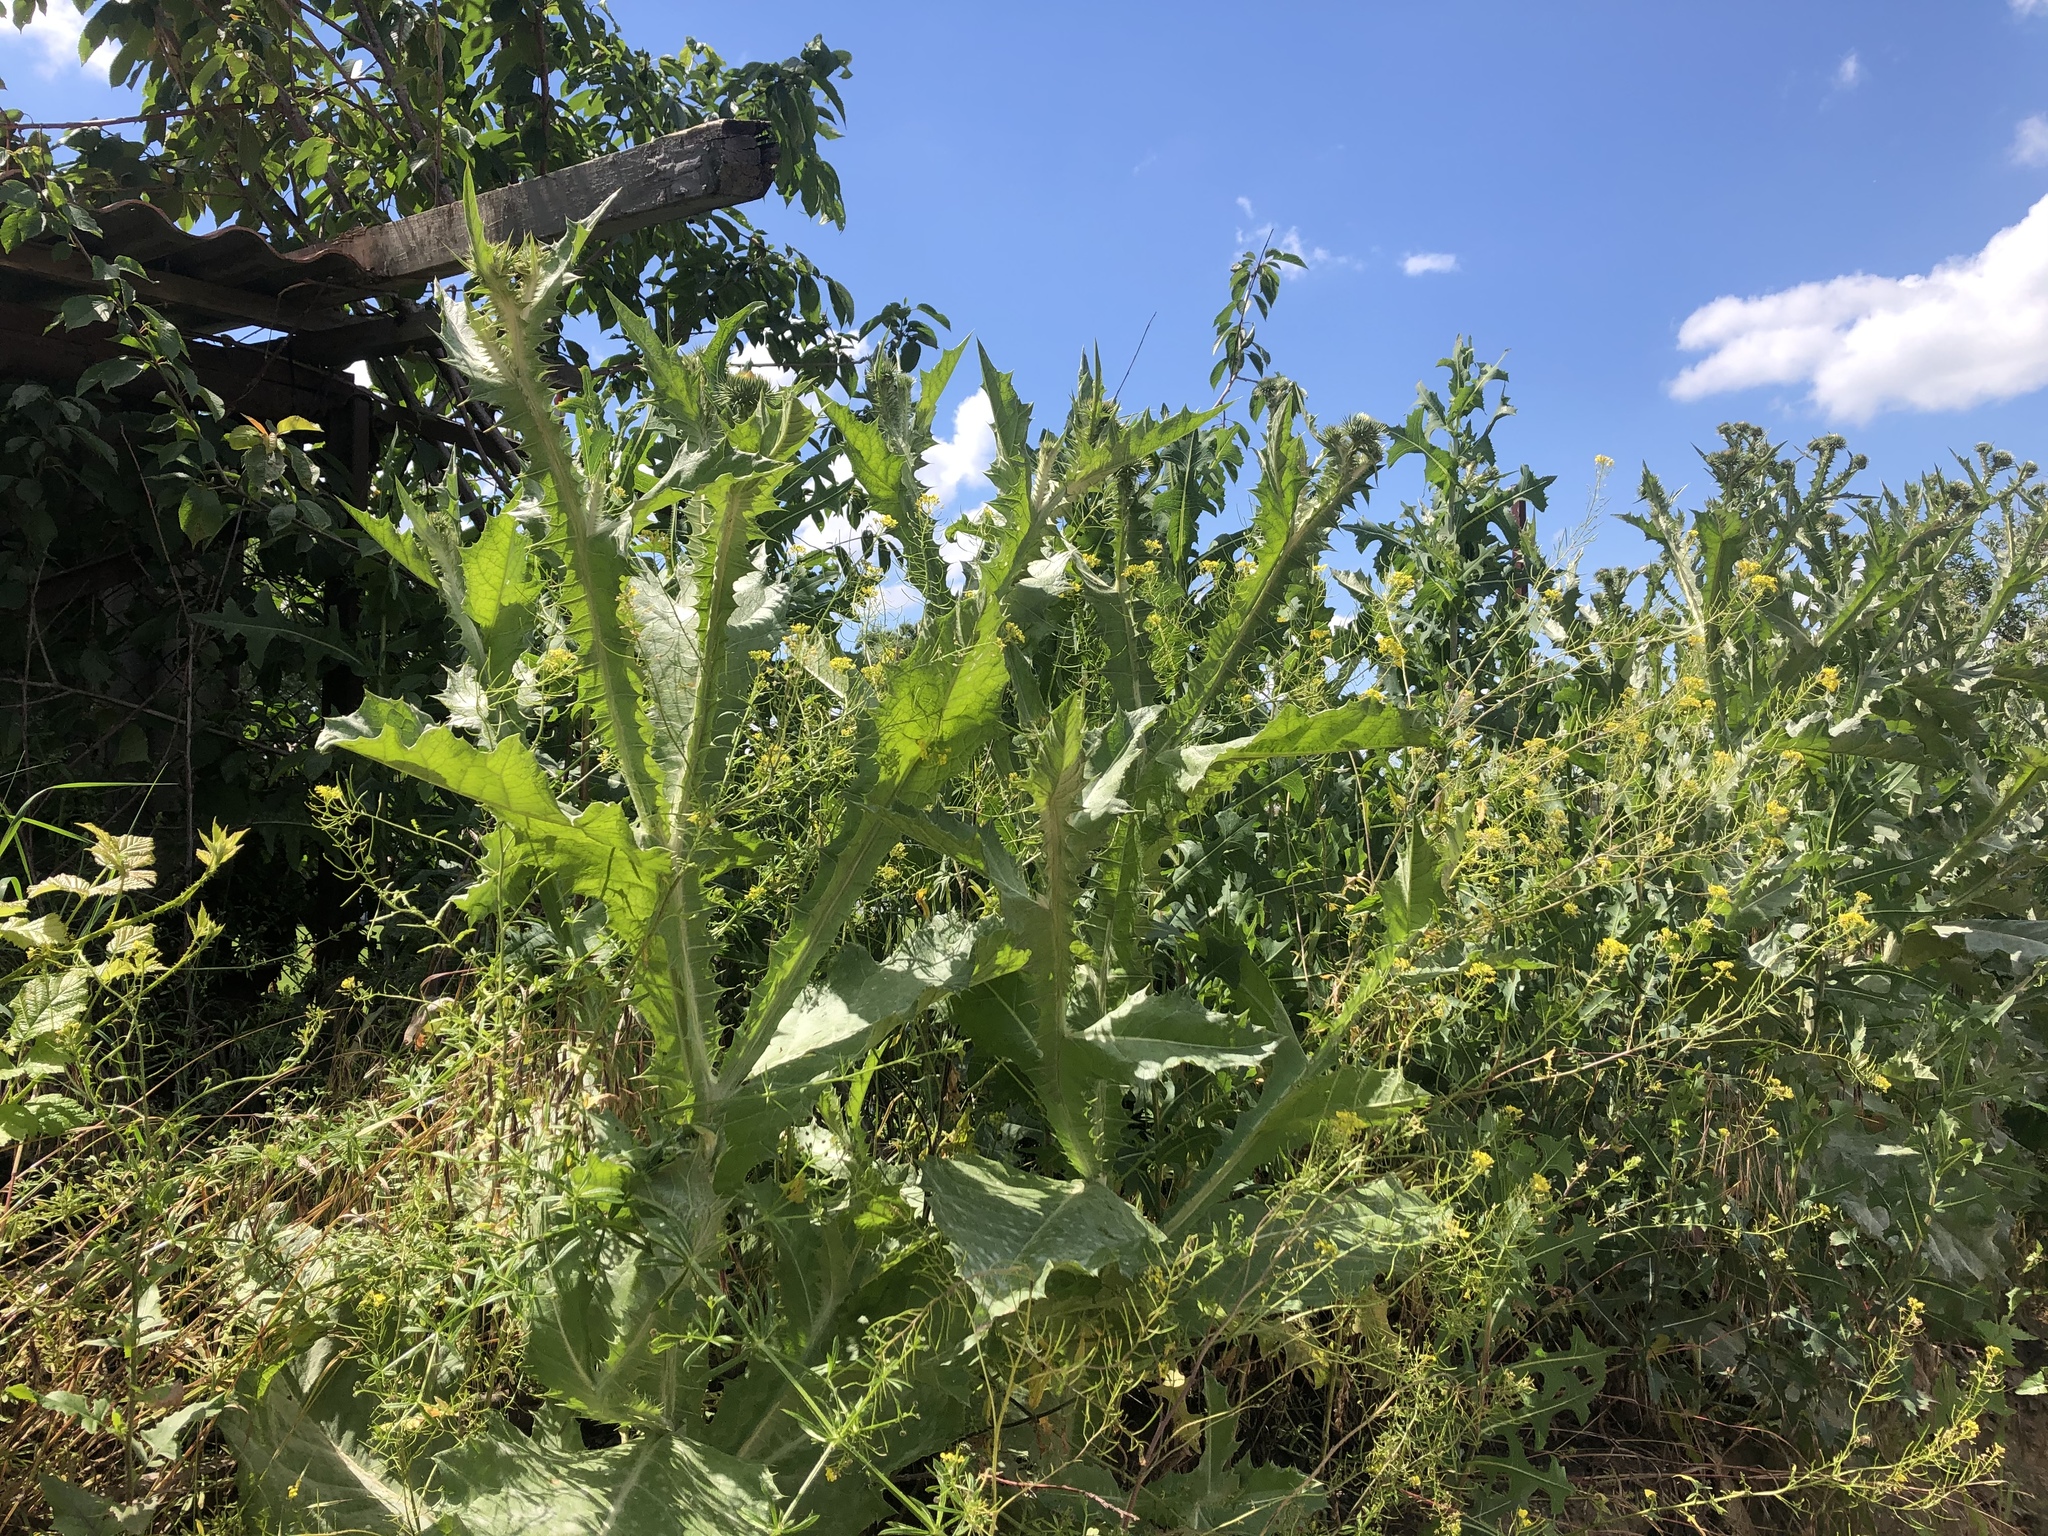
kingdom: Plantae
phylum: Tracheophyta
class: Magnoliopsida
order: Asterales
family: Asteraceae
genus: Onopordum
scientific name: Onopordum acanthium
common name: Scotch thistle
